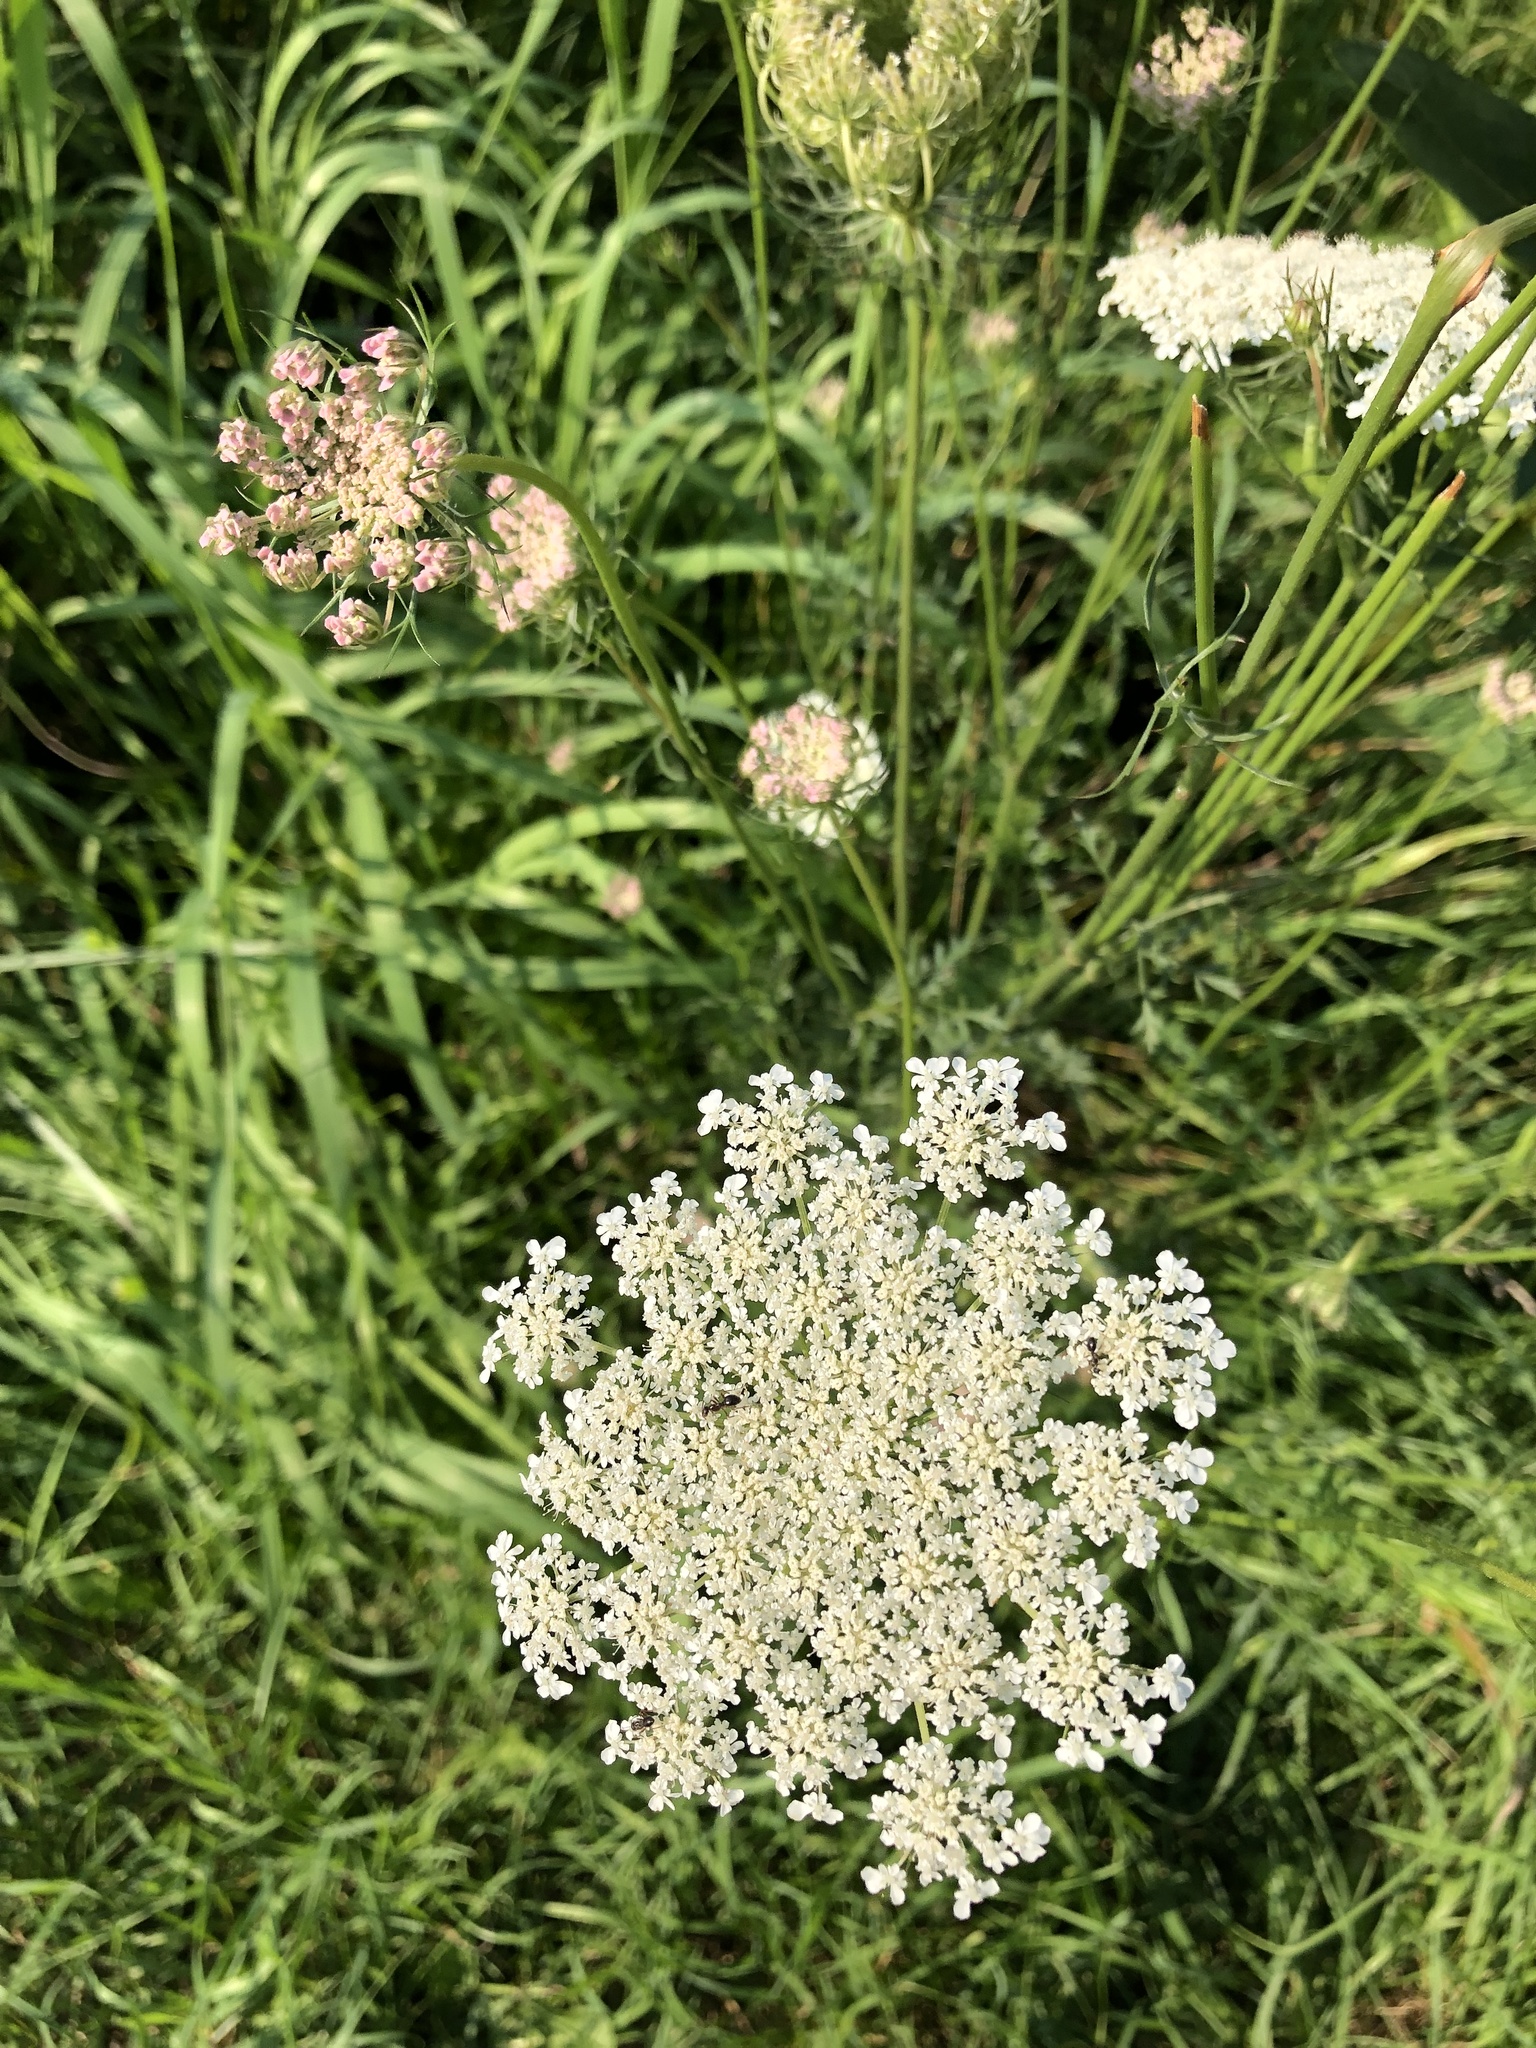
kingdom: Plantae
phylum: Tracheophyta
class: Magnoliopsida
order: Apiales
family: Apiaceae
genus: Daucus
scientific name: Daucus carota
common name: Wild carrot
